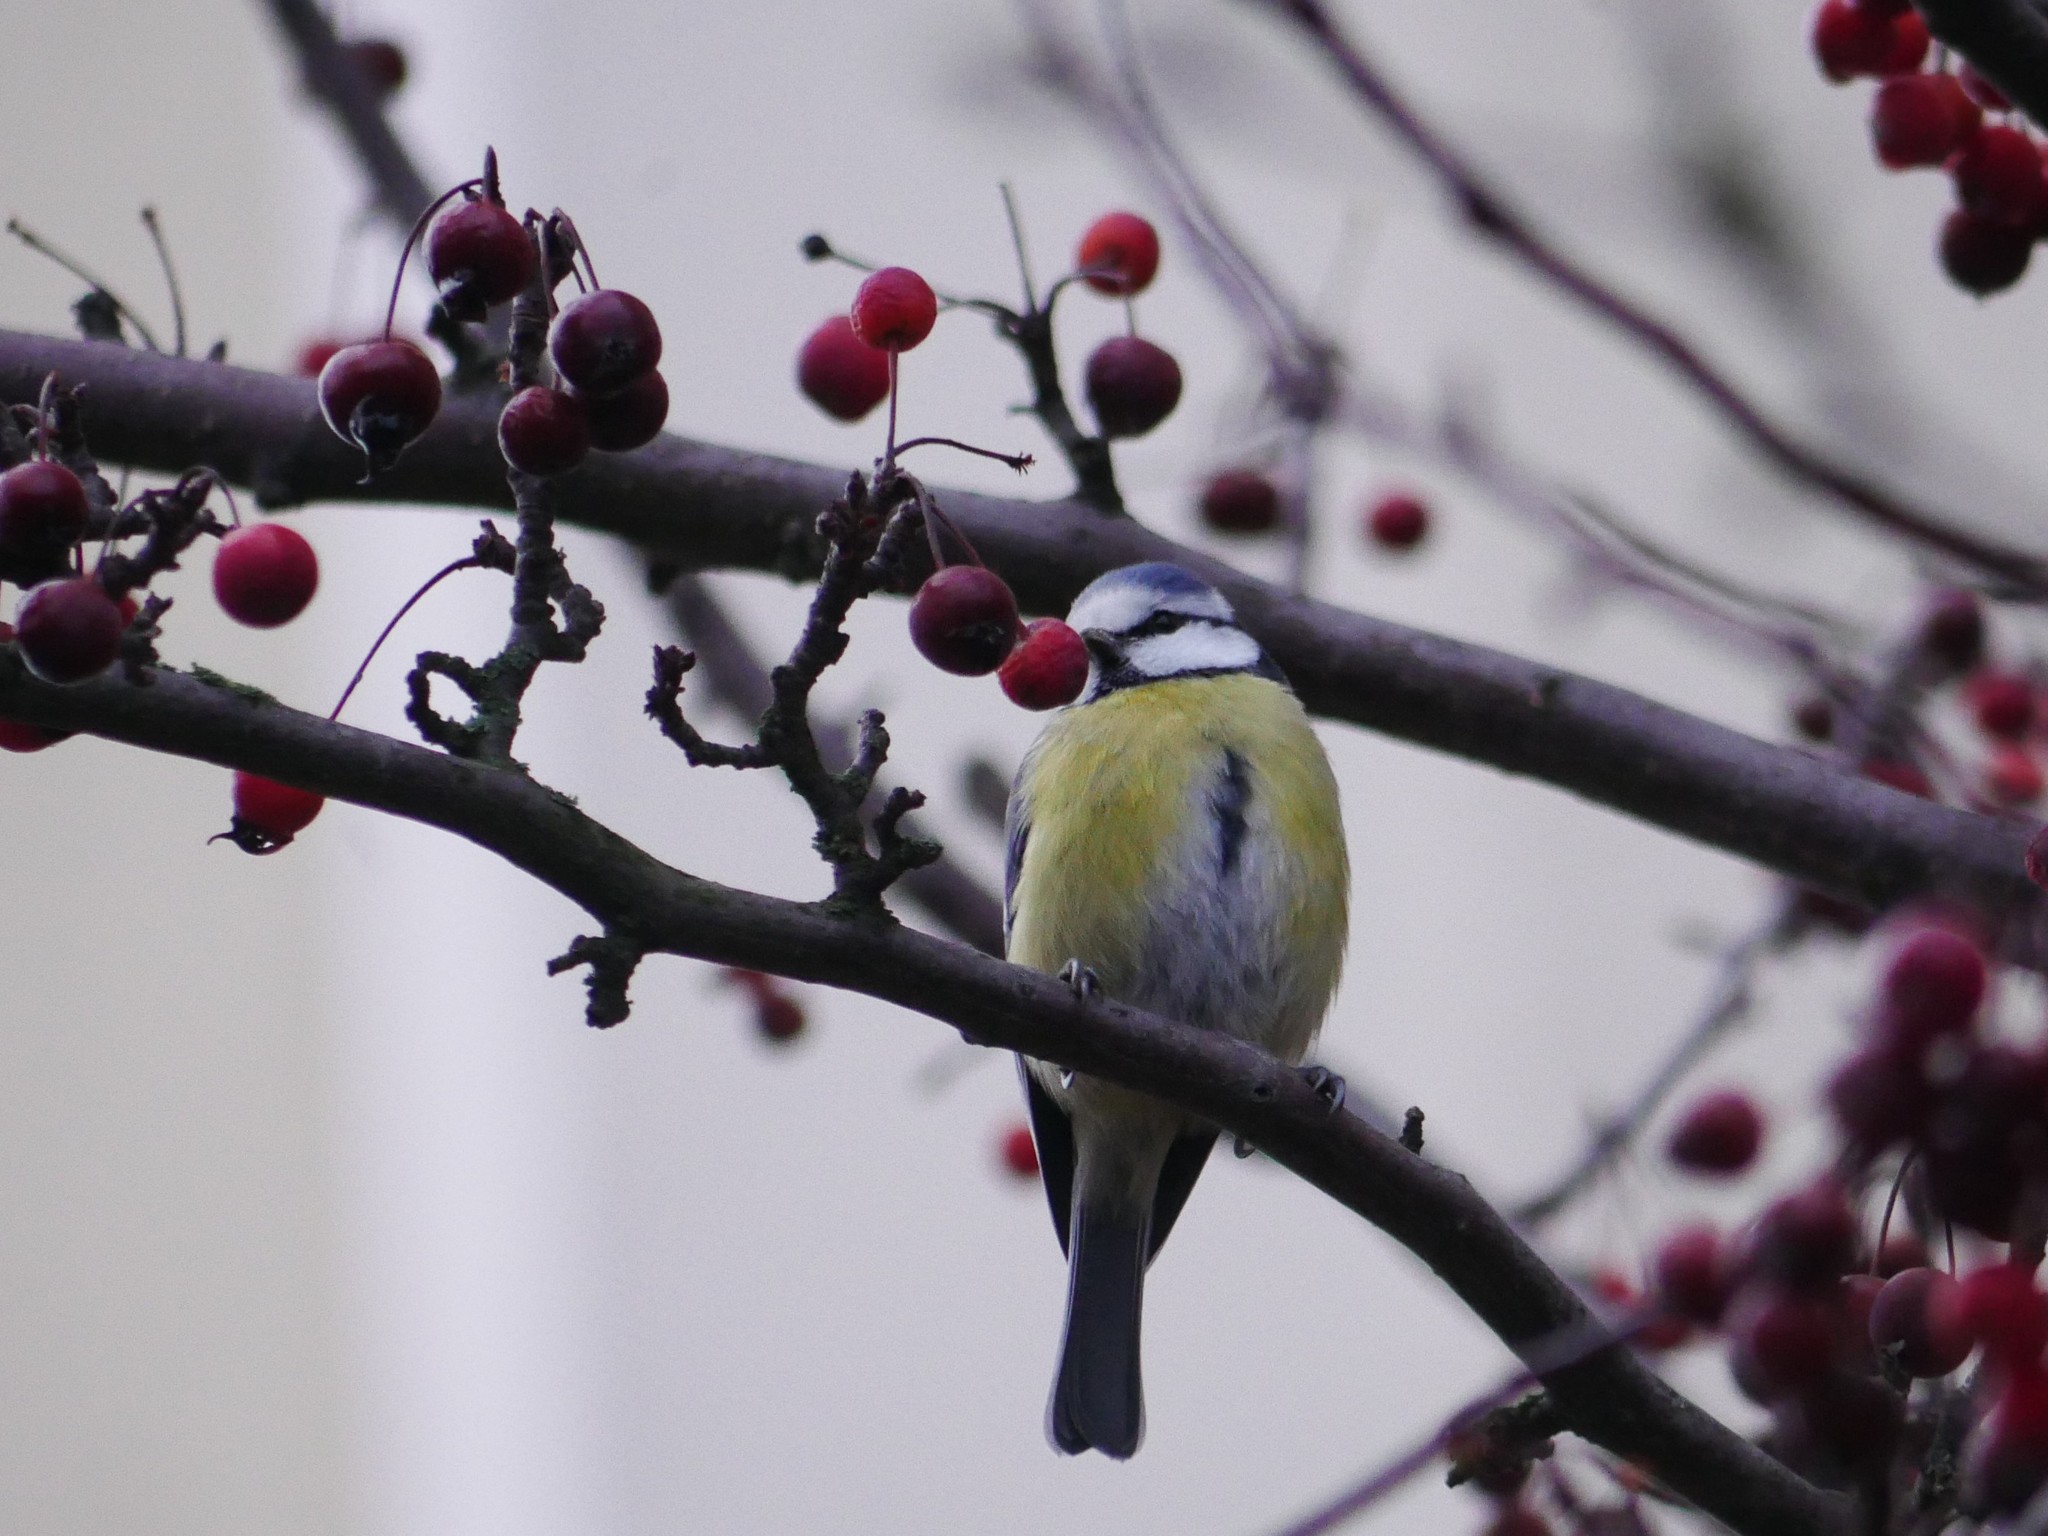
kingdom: Animalia
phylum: Chordata
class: Aves
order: Passeriformes
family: Paridae
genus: Cyanistes
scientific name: Cyanistes caeruleus
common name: Eurasian blue tit
